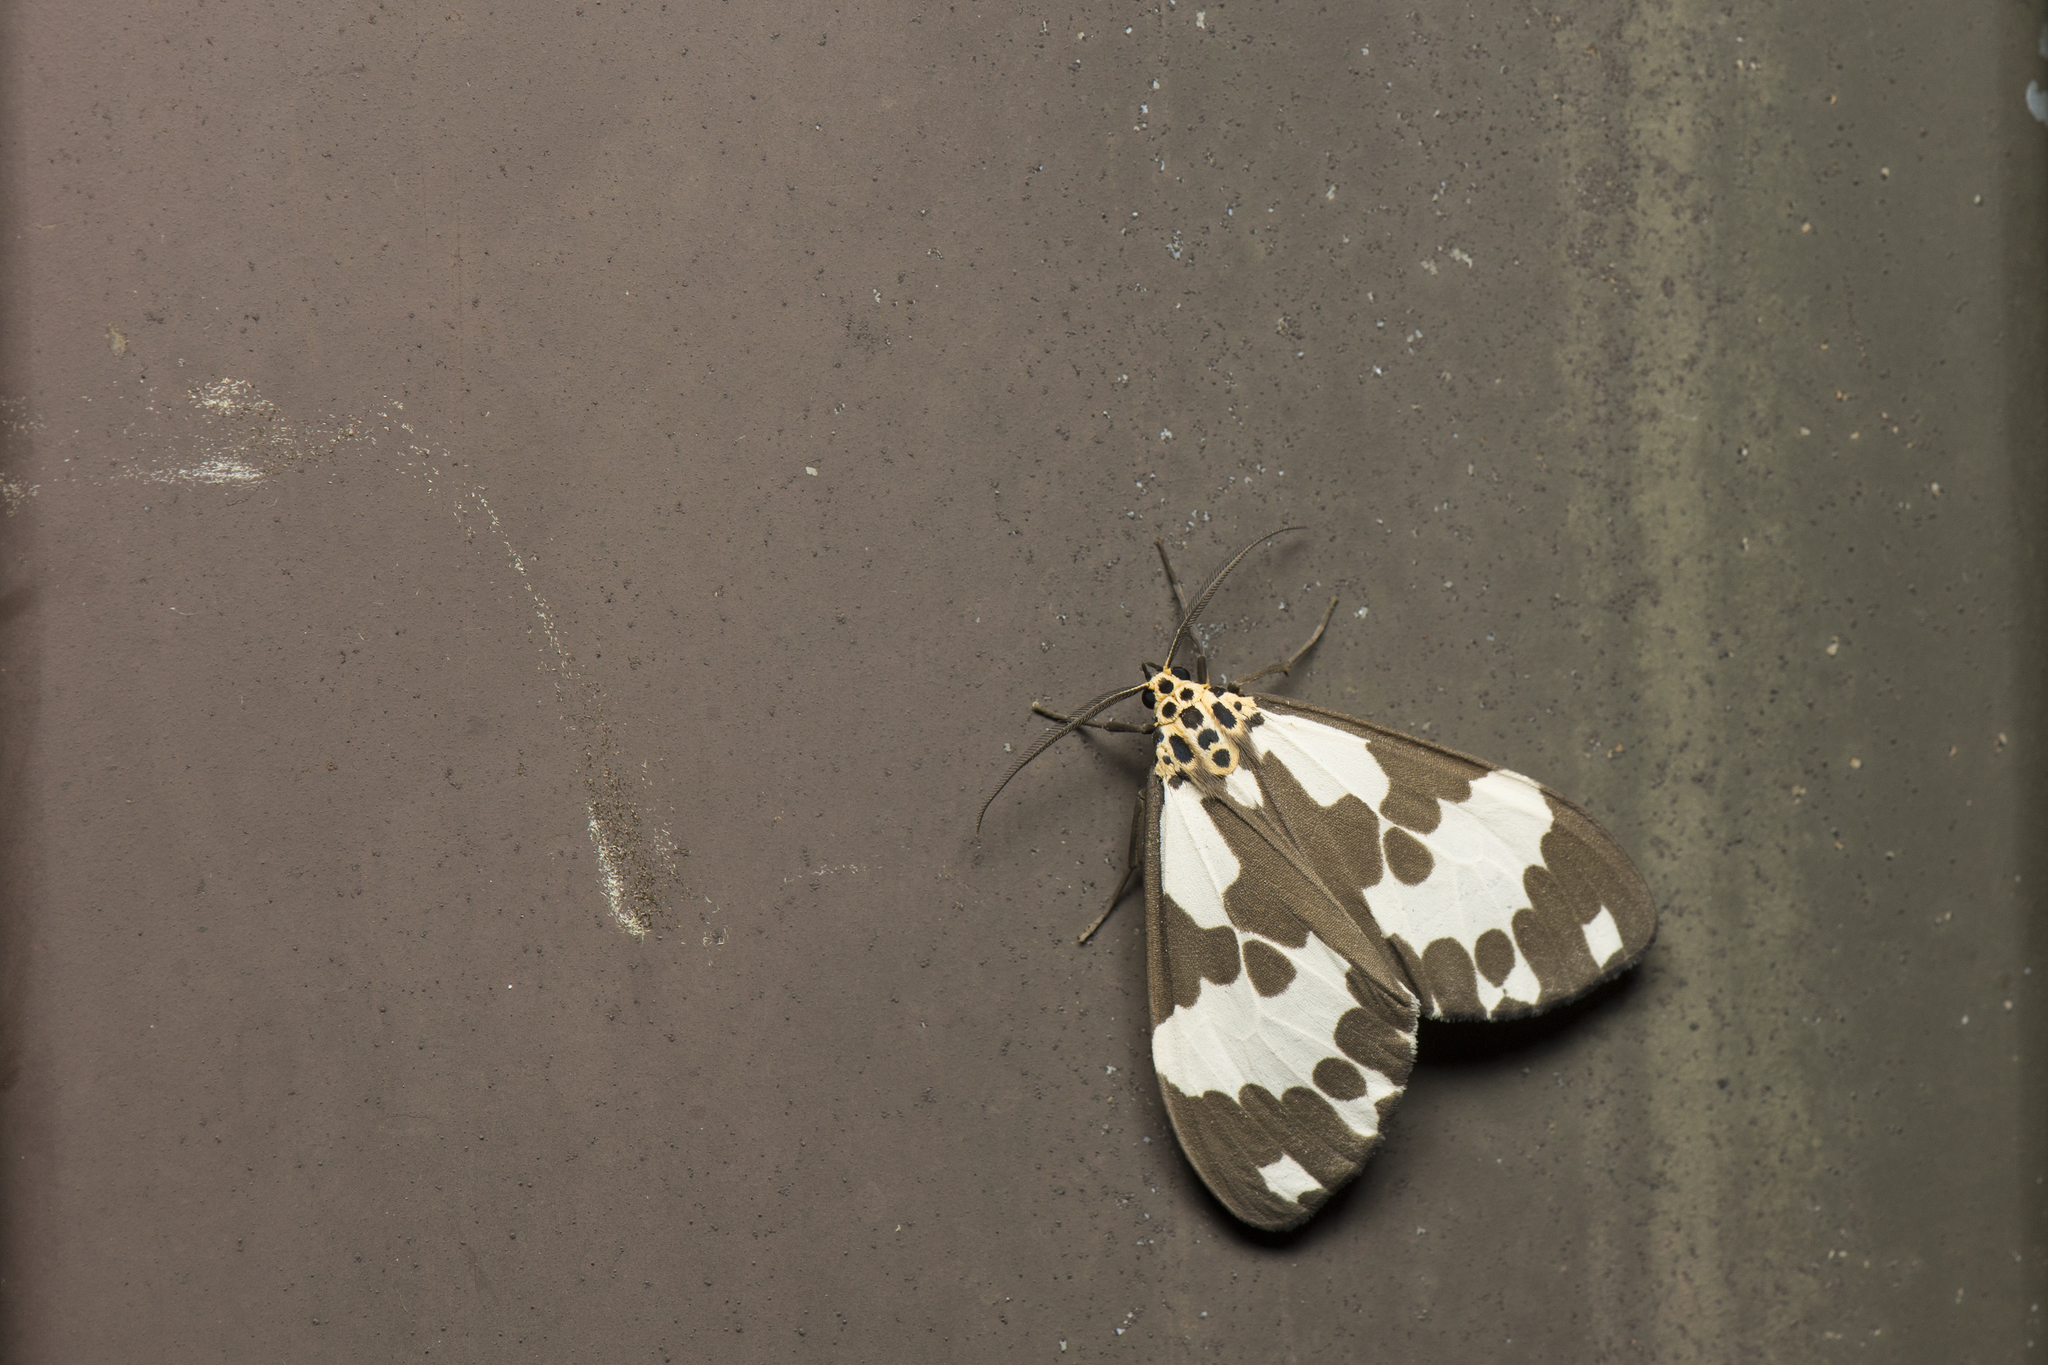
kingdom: Animalia
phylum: Arthropoda
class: Insecta
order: Lepidoptera
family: Erebidae
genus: Nyctemera
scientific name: Nyctemera carissima
